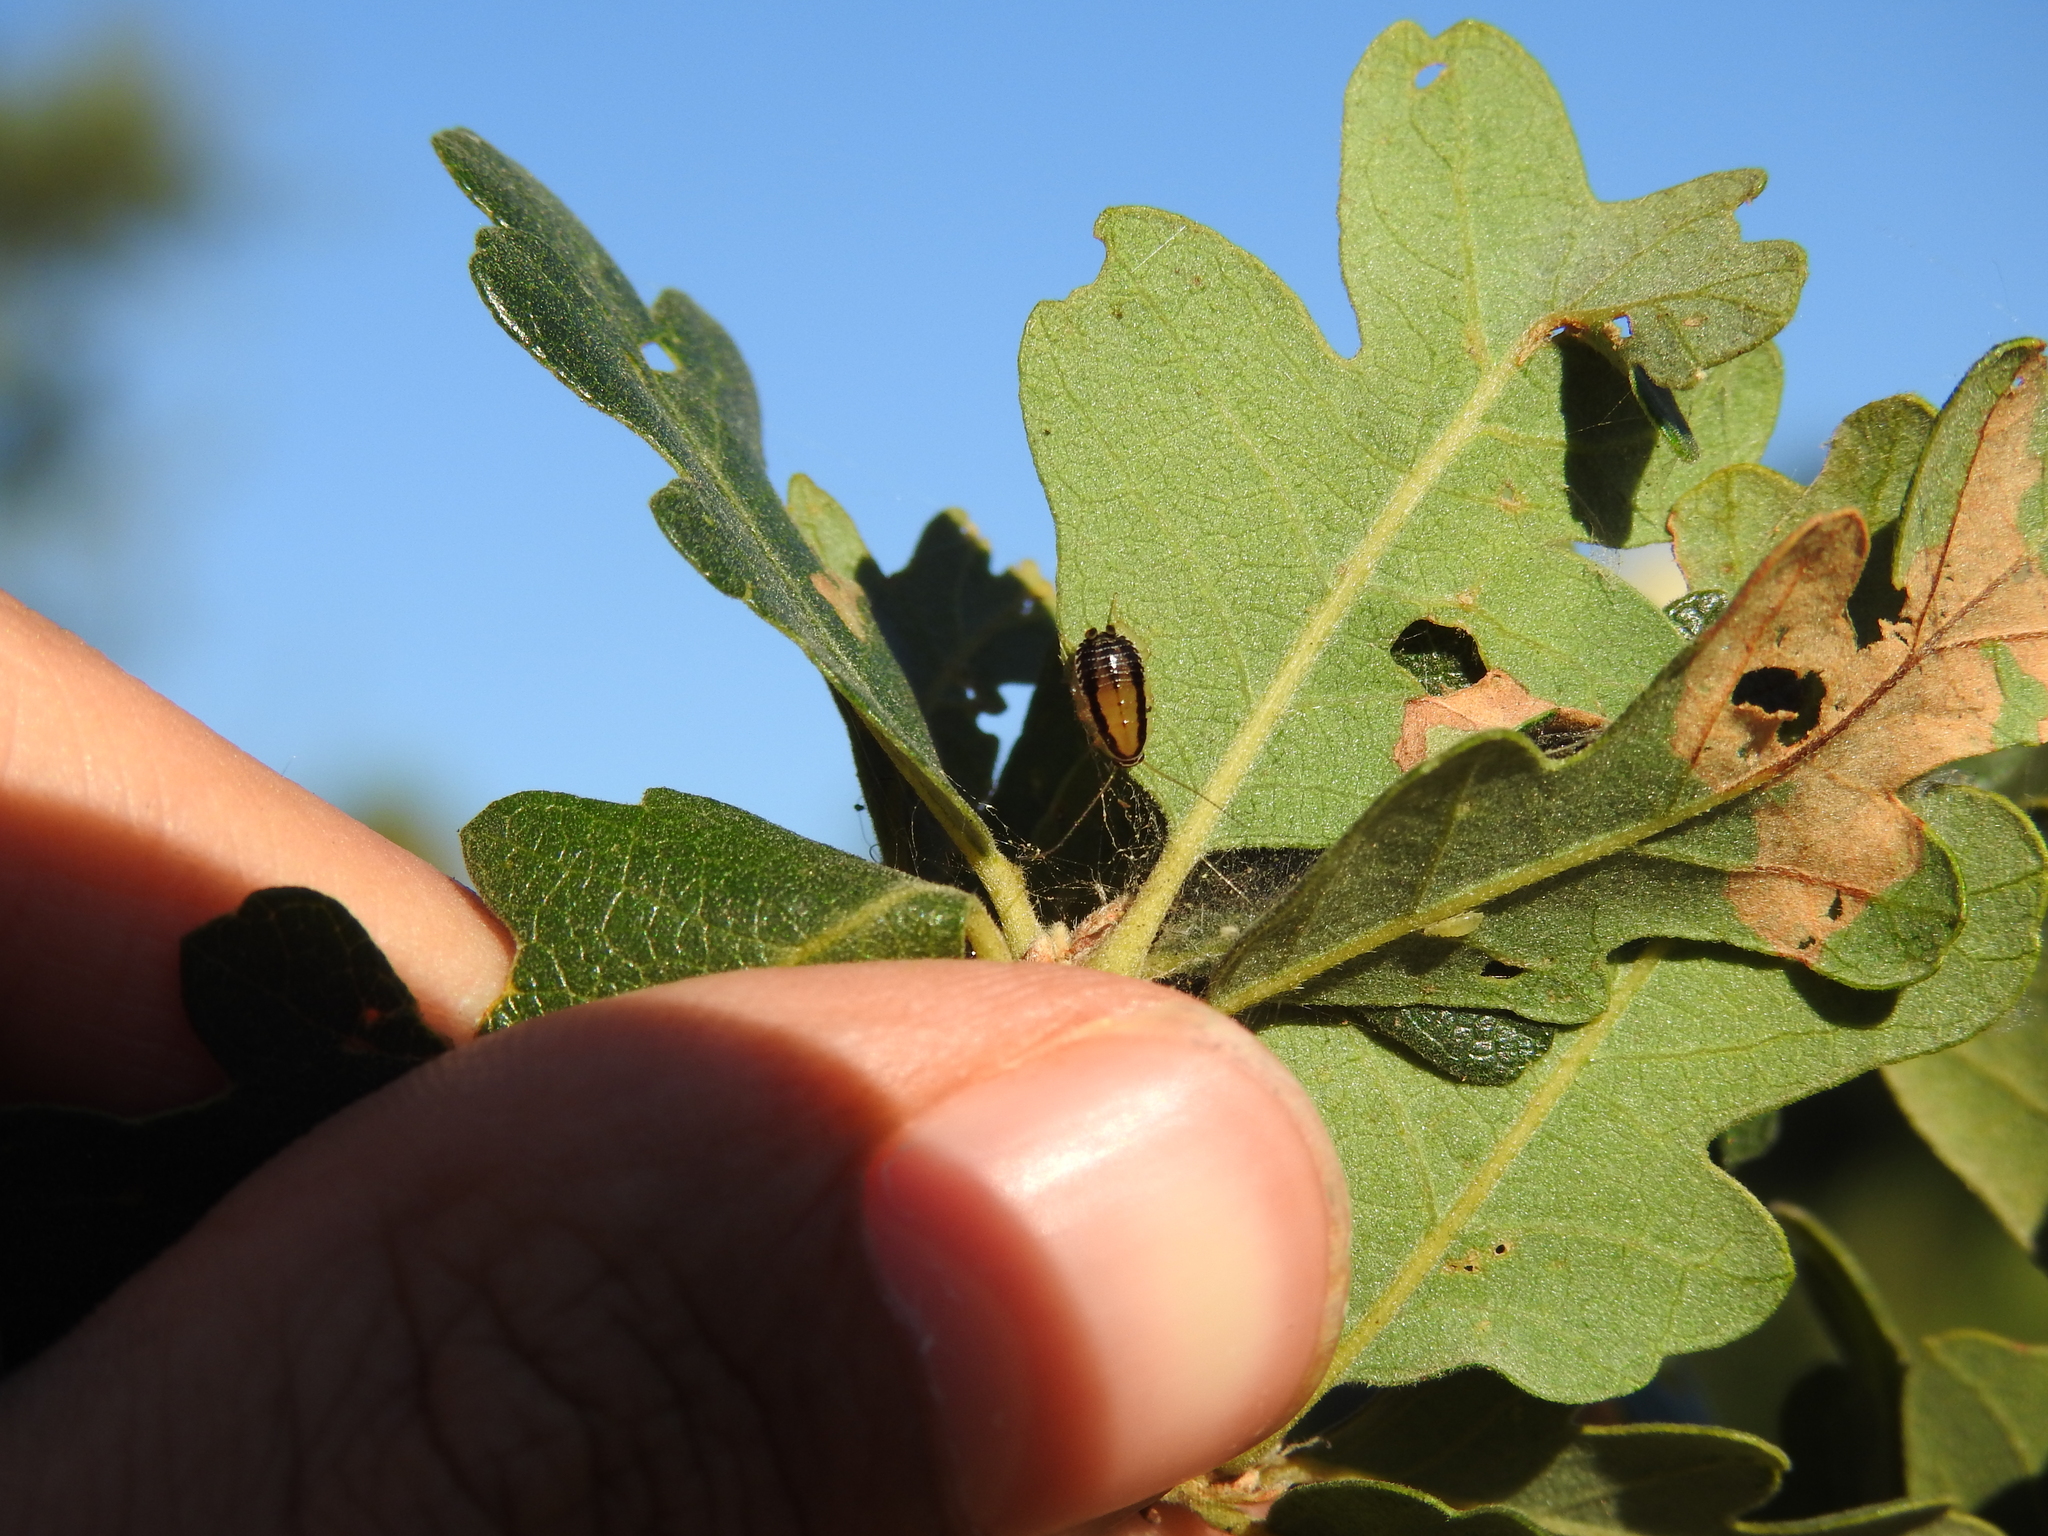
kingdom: Animalia
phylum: Arthropoda
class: Insecta
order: Blattodea
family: Ectobiidae
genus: Luridiblatta
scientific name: Luridiblatta trivittata
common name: Three-lined cockroach
